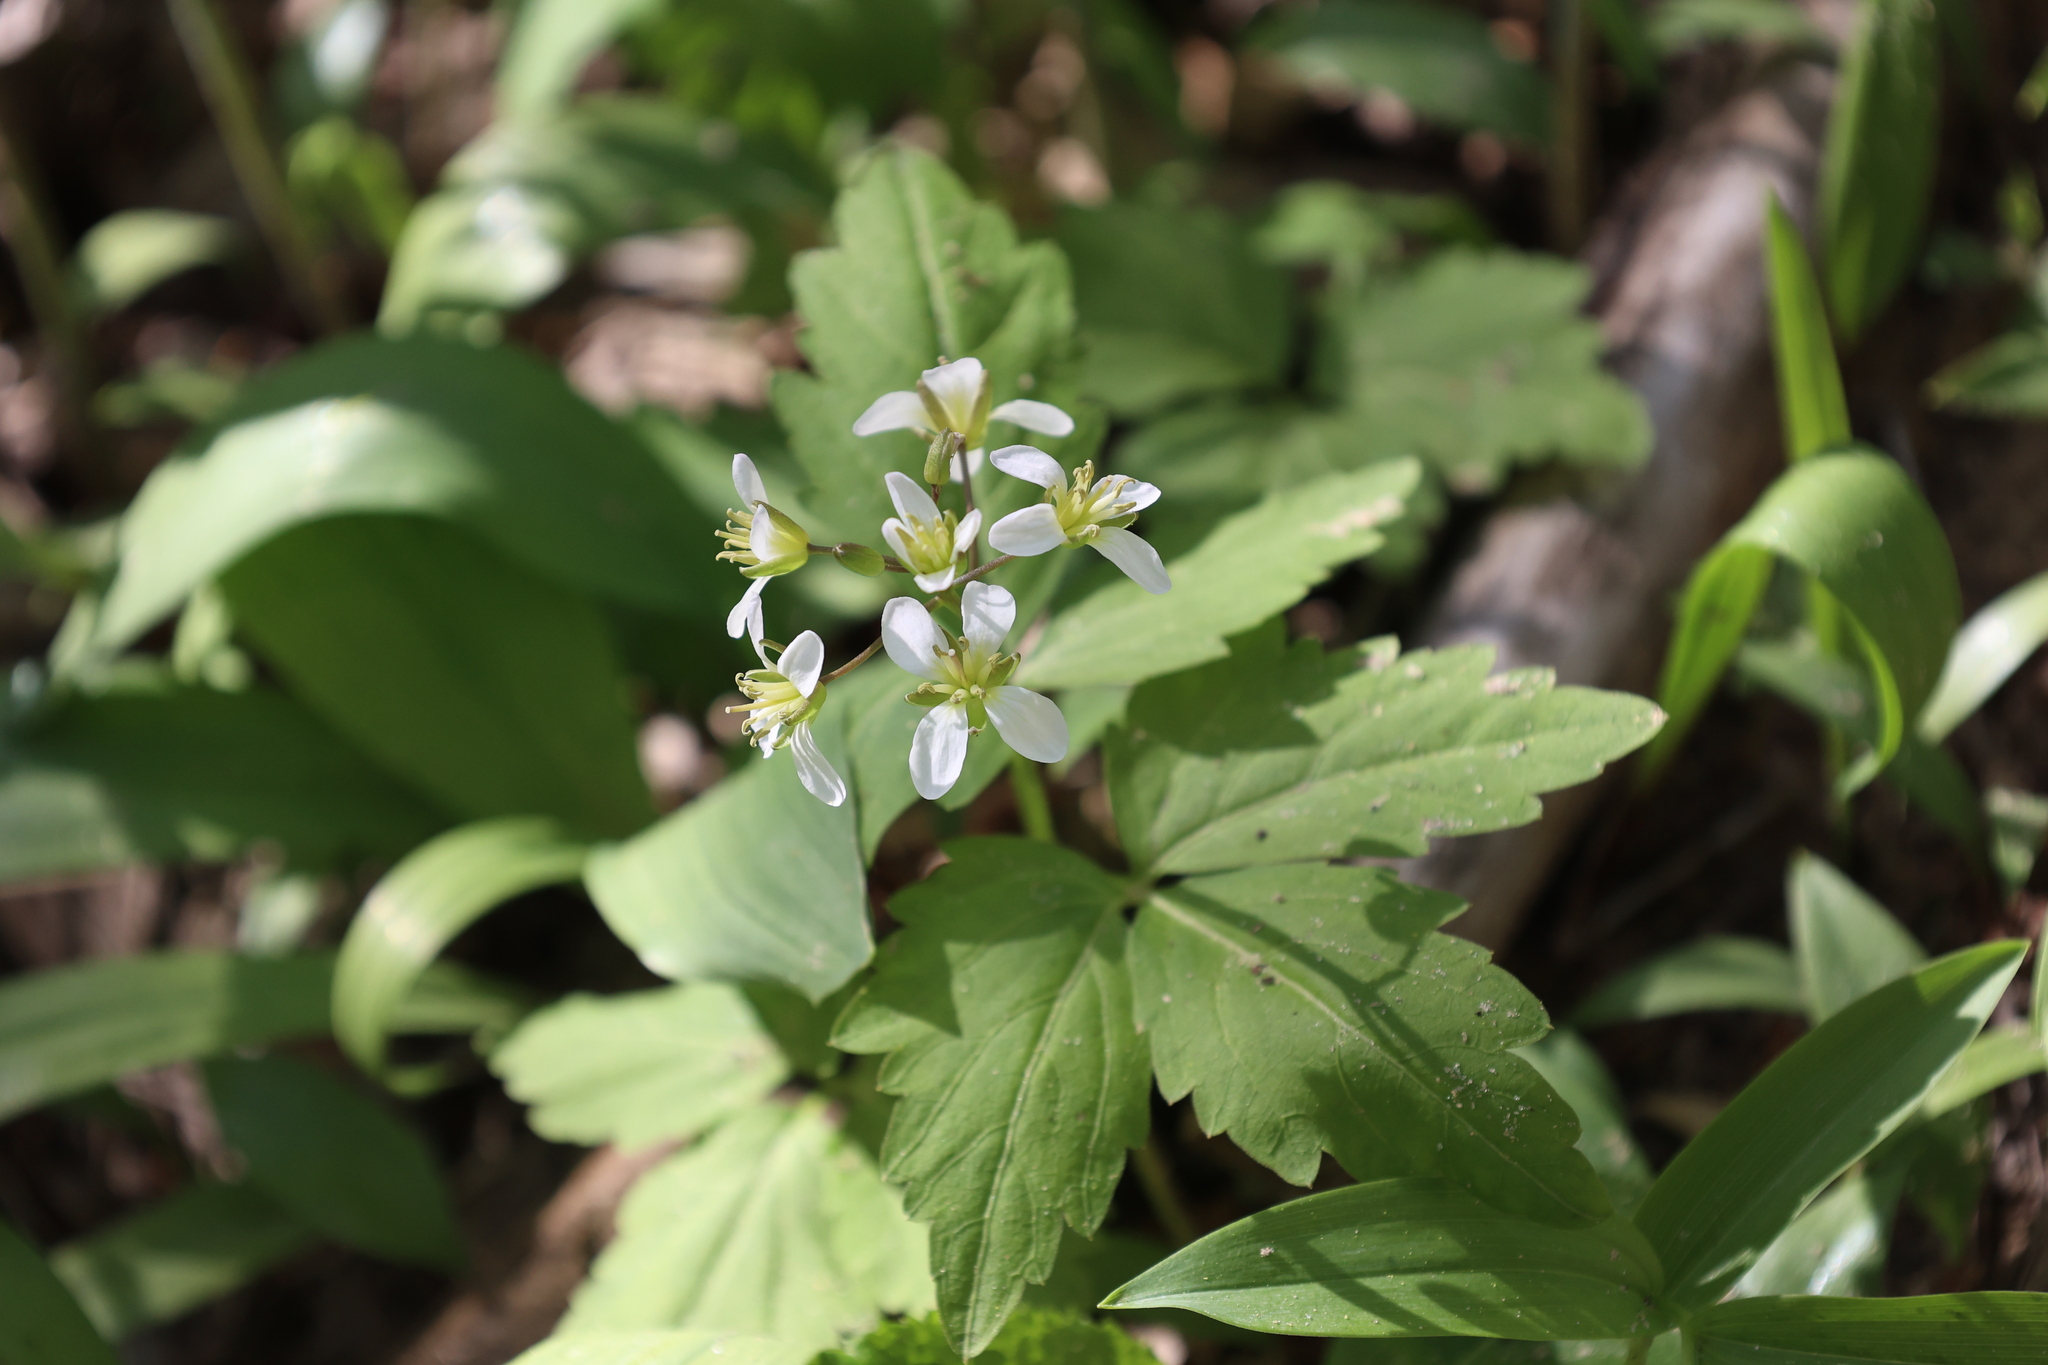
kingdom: Plantae
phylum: Tracheophyta
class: Magnoliopsida
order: Brassicales
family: Brassicaceae
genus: Cardamine
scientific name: Cardamine diphylla
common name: Broad-leaved toothwort
